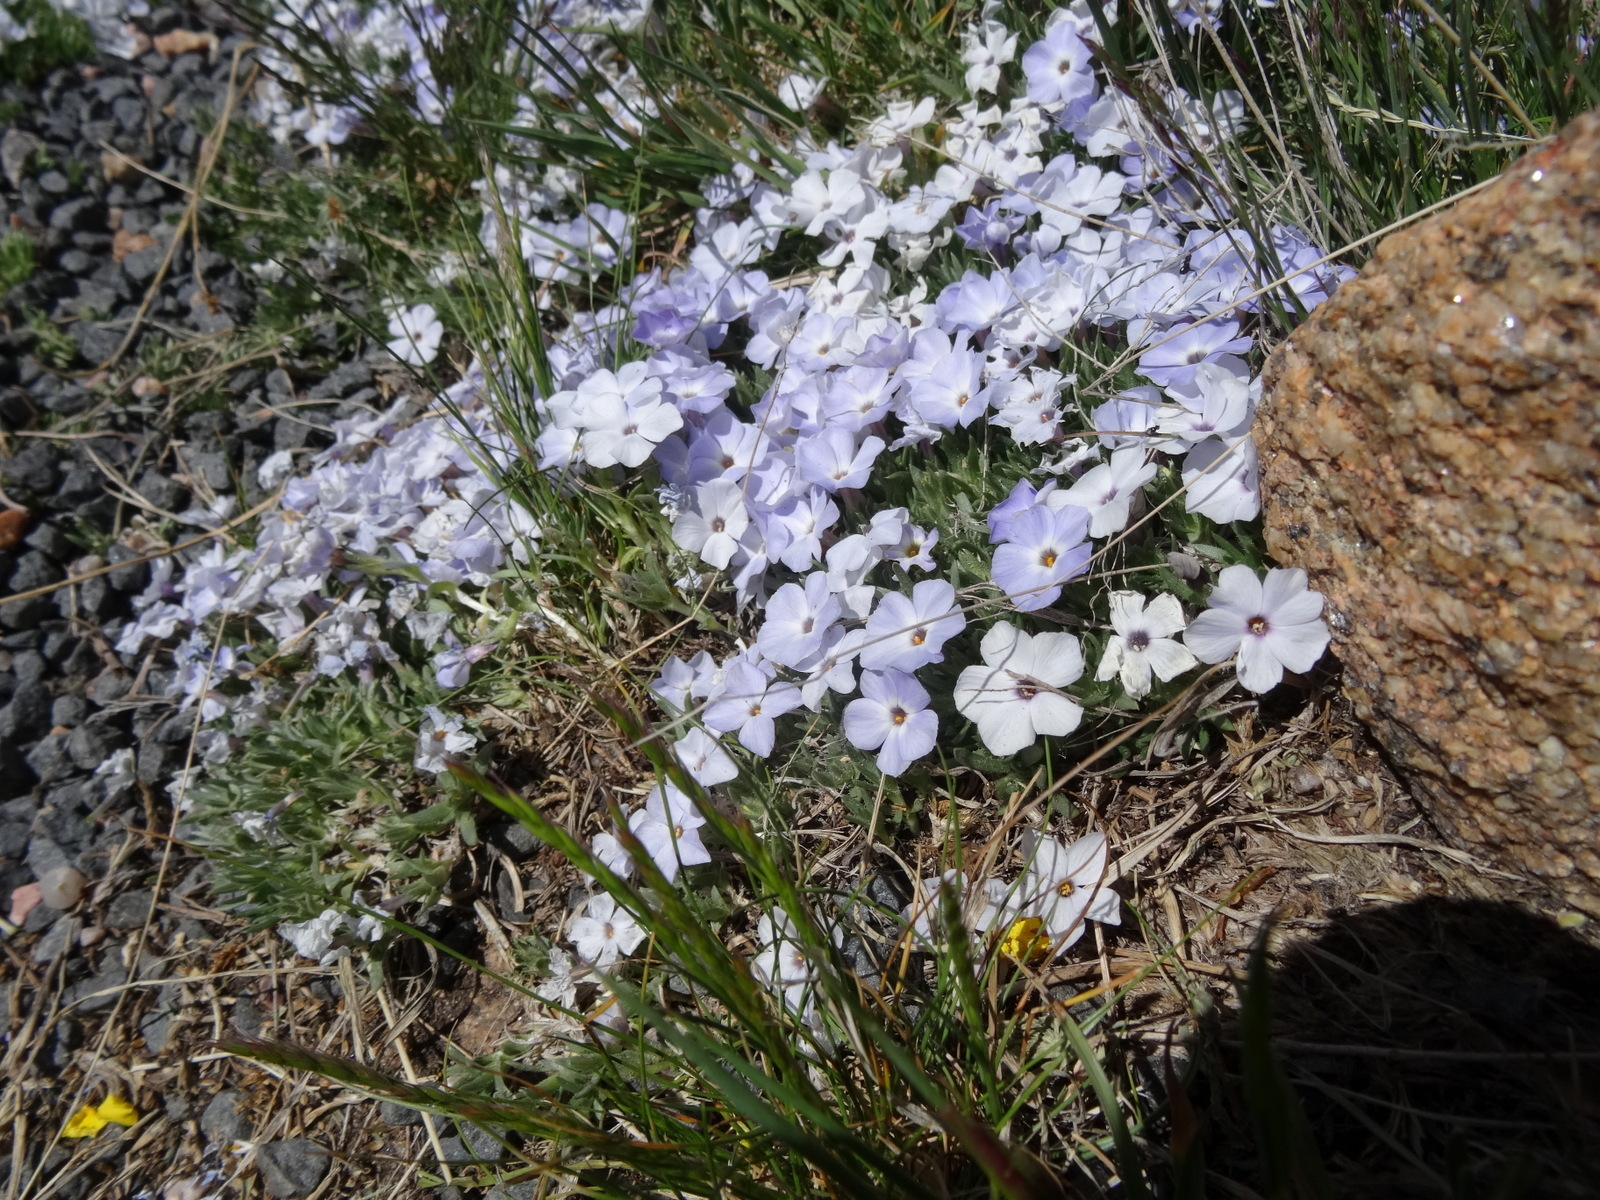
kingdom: Plantae
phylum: Tracheophyta
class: Magnoliopsida
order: Ericales
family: Polemoniaceae
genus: Phlox
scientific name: Phlox condensata
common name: Compact phlox
